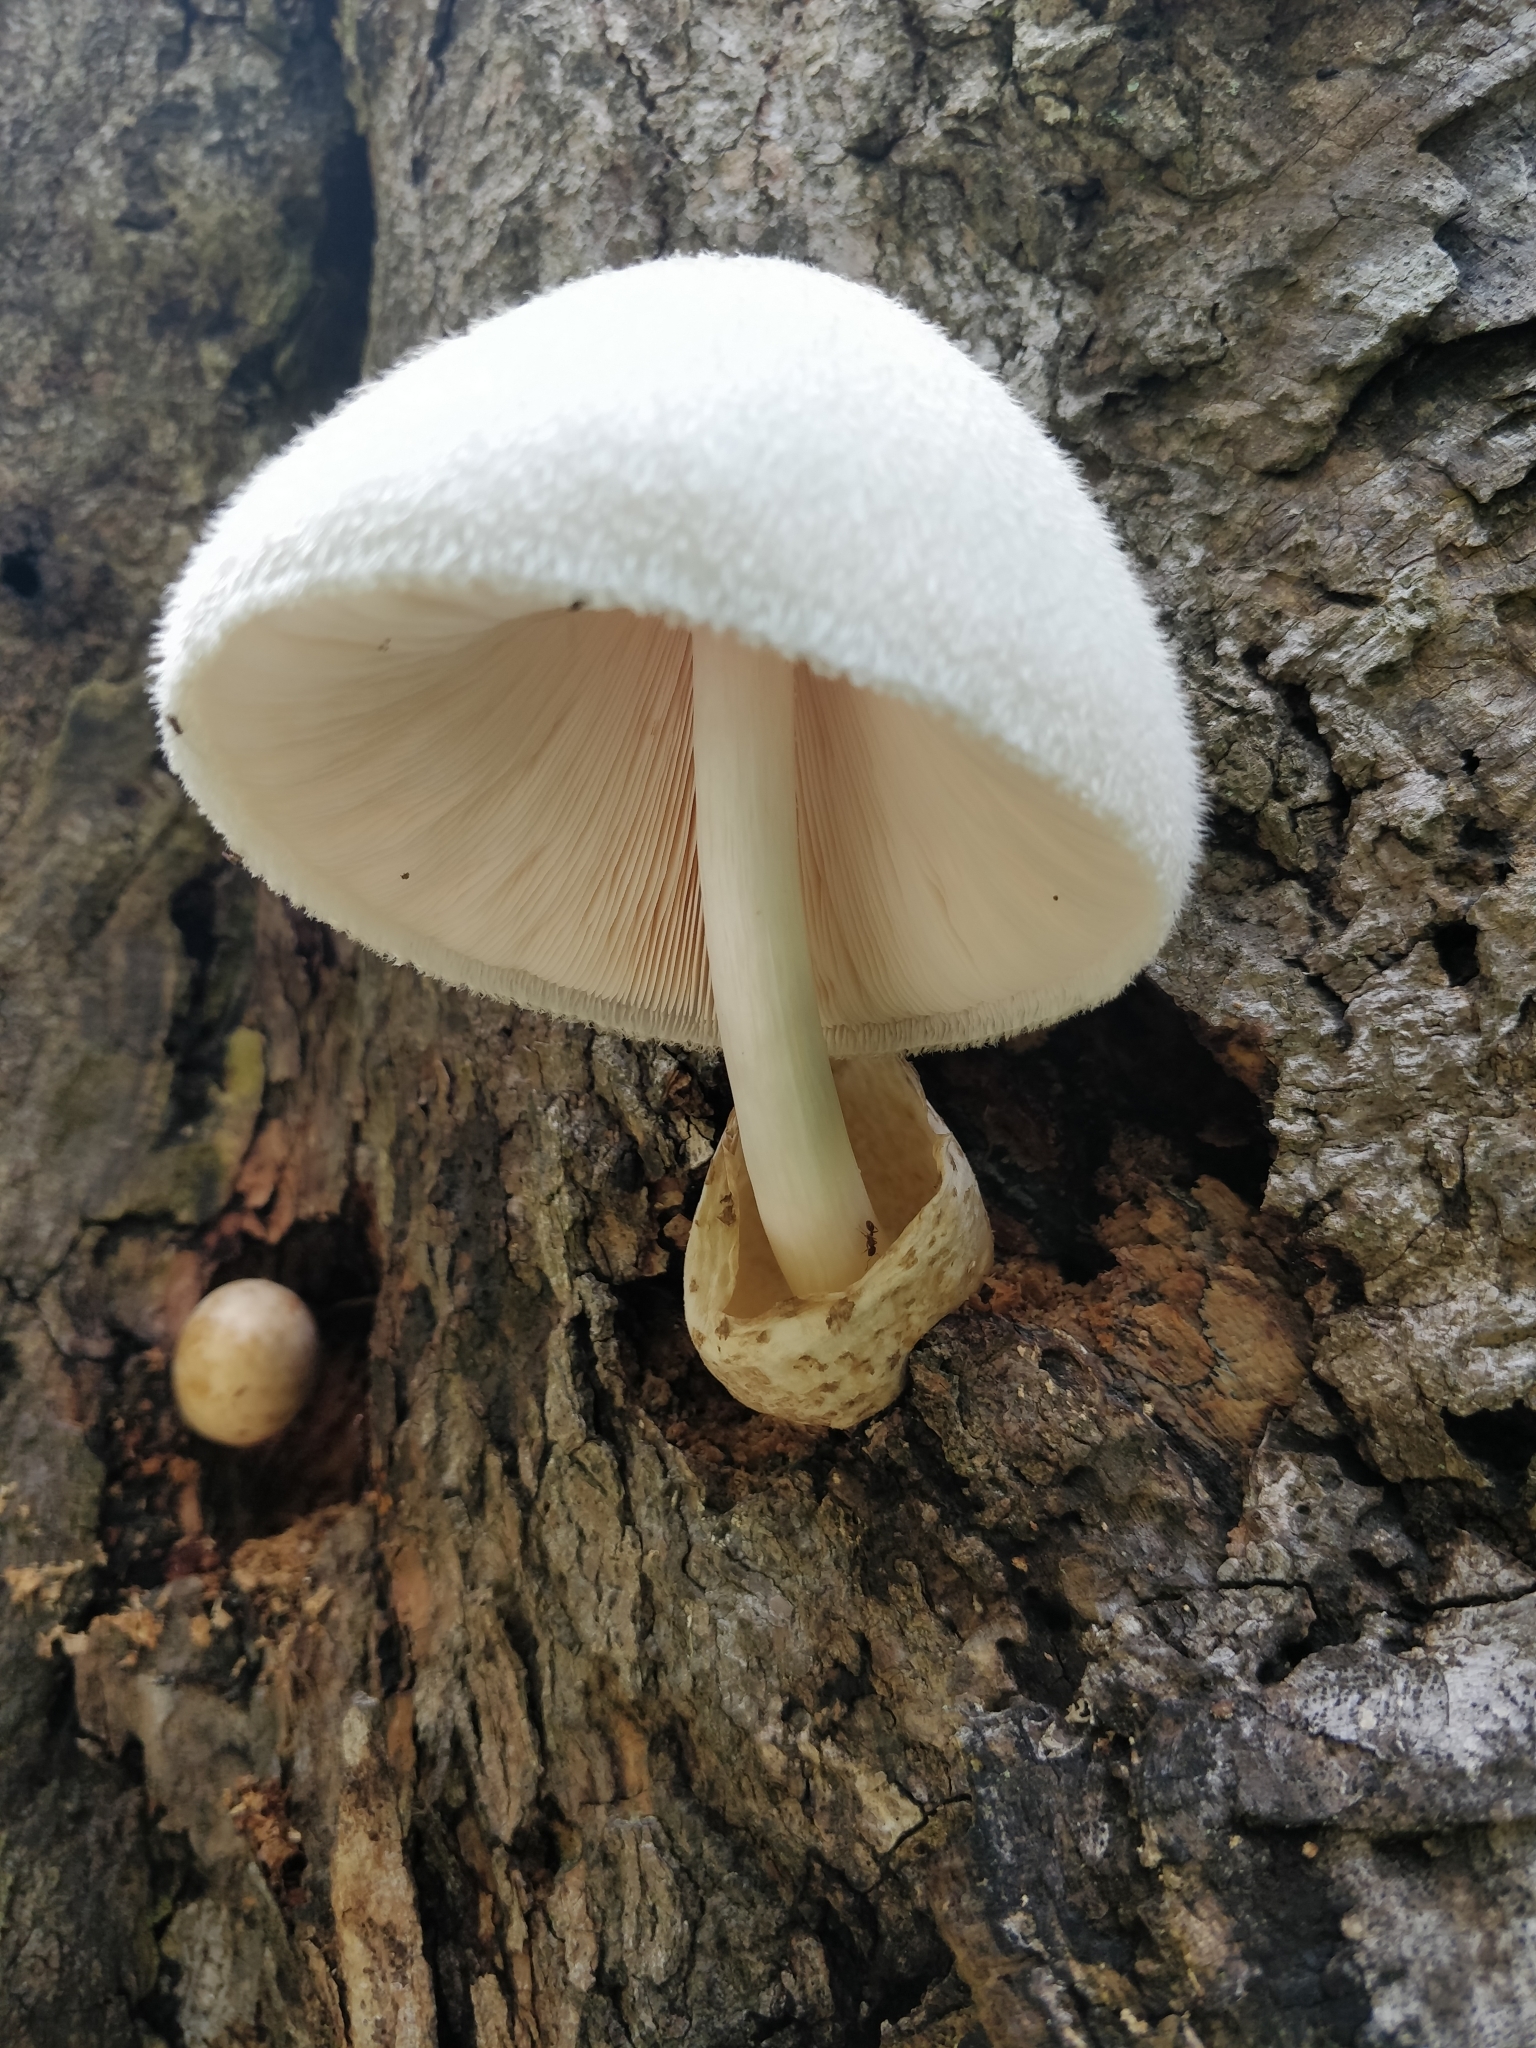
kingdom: Fungi
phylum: Basidiomycota
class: Agaricomycetes
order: Agaricales
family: Pluteaceae
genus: Volvariella
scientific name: Volvariella bombycina
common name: Silky rosegill
